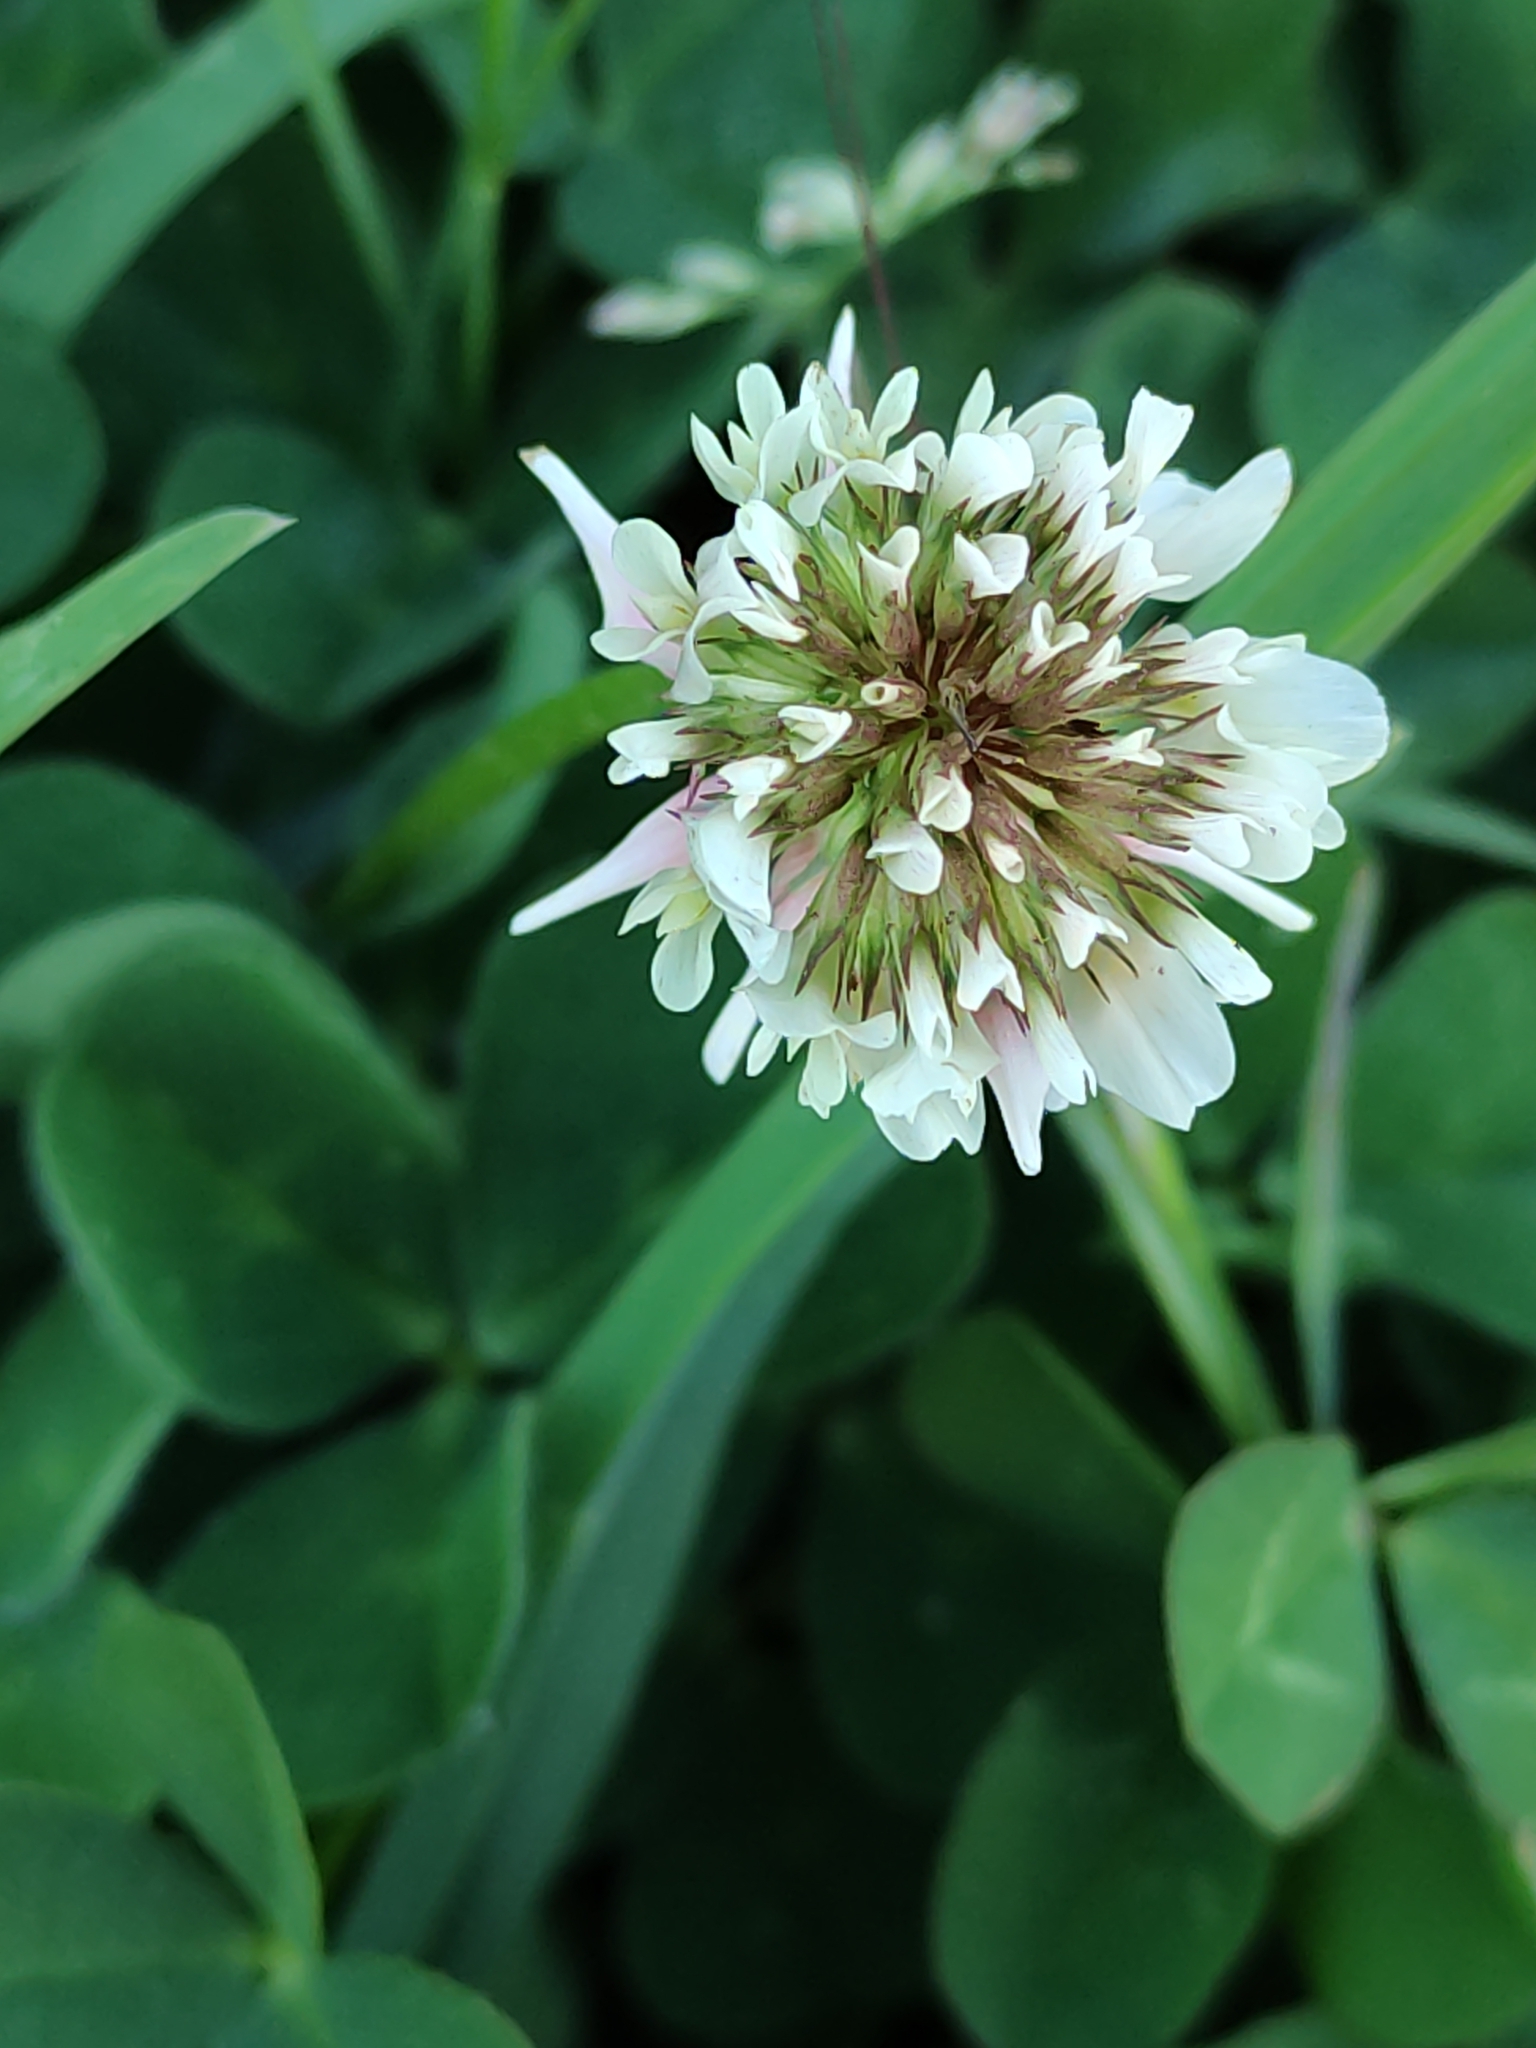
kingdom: Plantae
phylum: Tracheophyta
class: Magnoliopsida
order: Fabales
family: Fabaceae
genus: Trifolium
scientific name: Trifolium repens
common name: White clover
